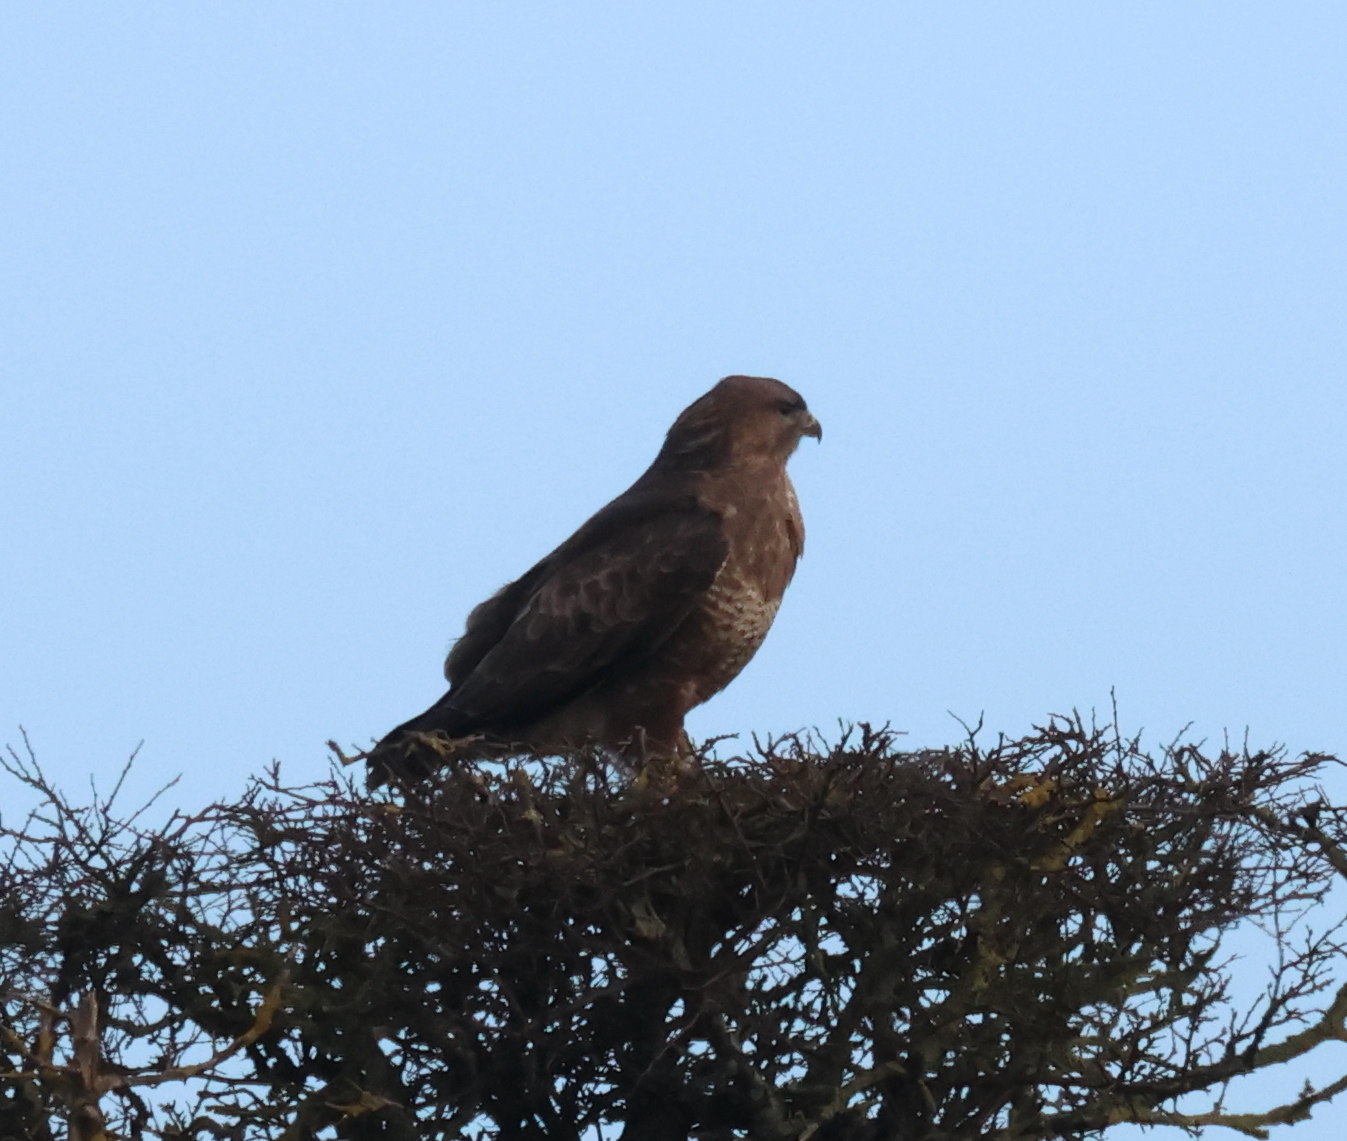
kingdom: Animalia
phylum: Chordata
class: Aves
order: Accipitriformes
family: Accipitridae
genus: Buteo
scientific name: Buteo buteo
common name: Common buzzard
